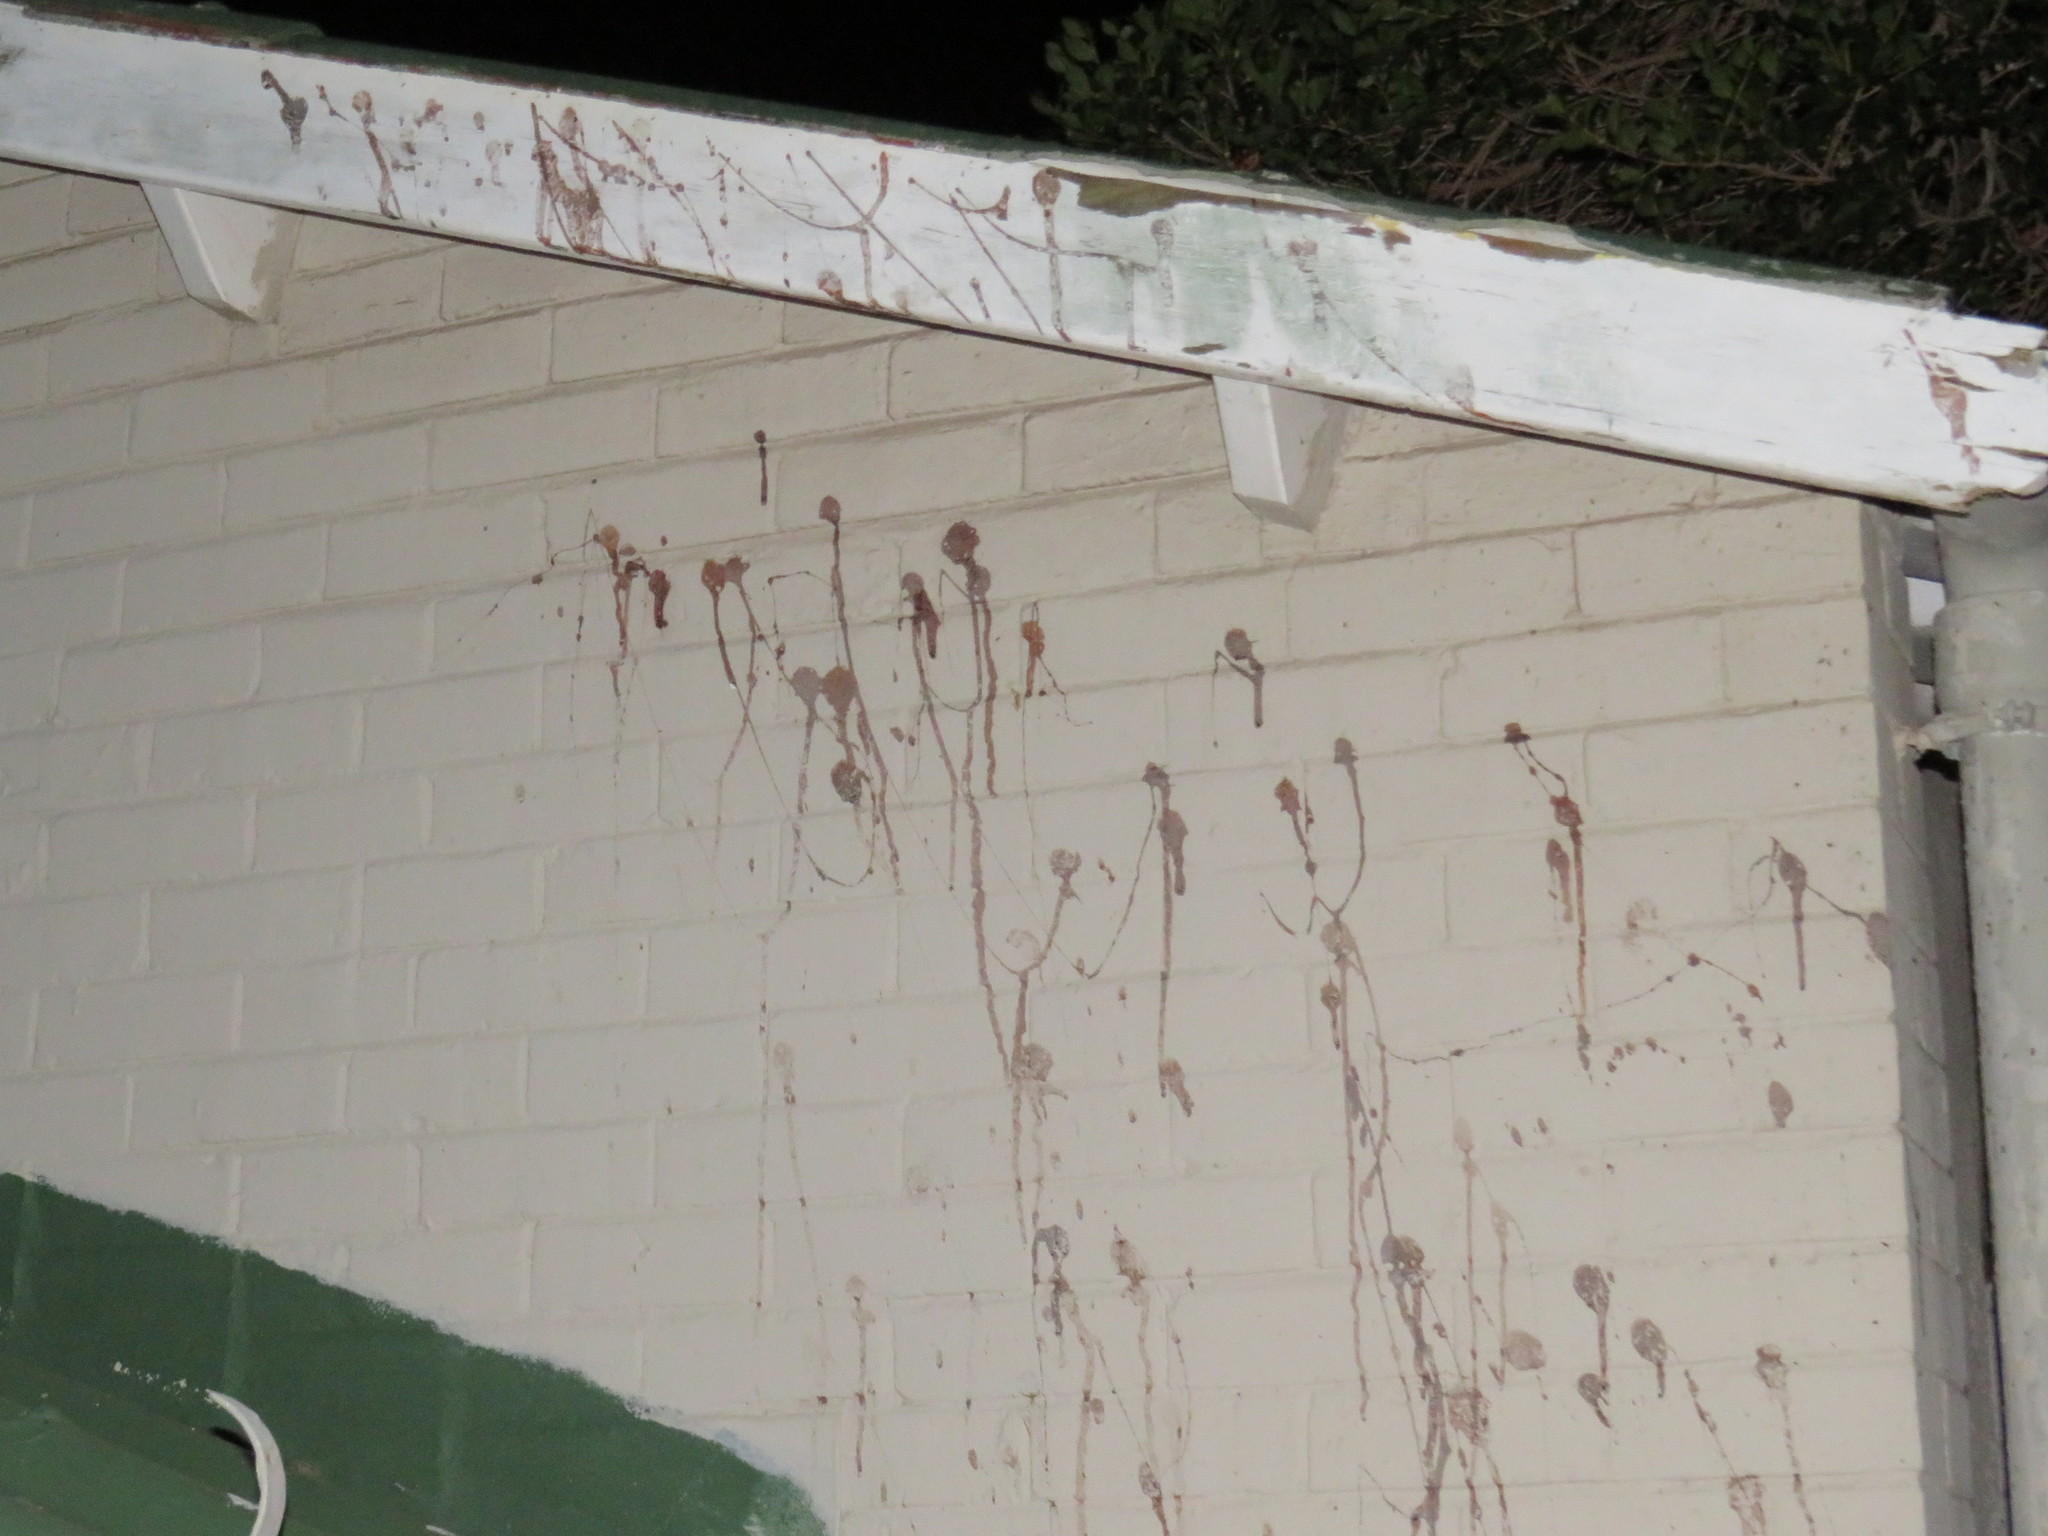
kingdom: Animalia
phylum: Chordata
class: Mammalia
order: Chiroptera
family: Pteropodidae
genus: Rousettus
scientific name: Rousettus aegyptiacus
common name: Egyptian rousette
